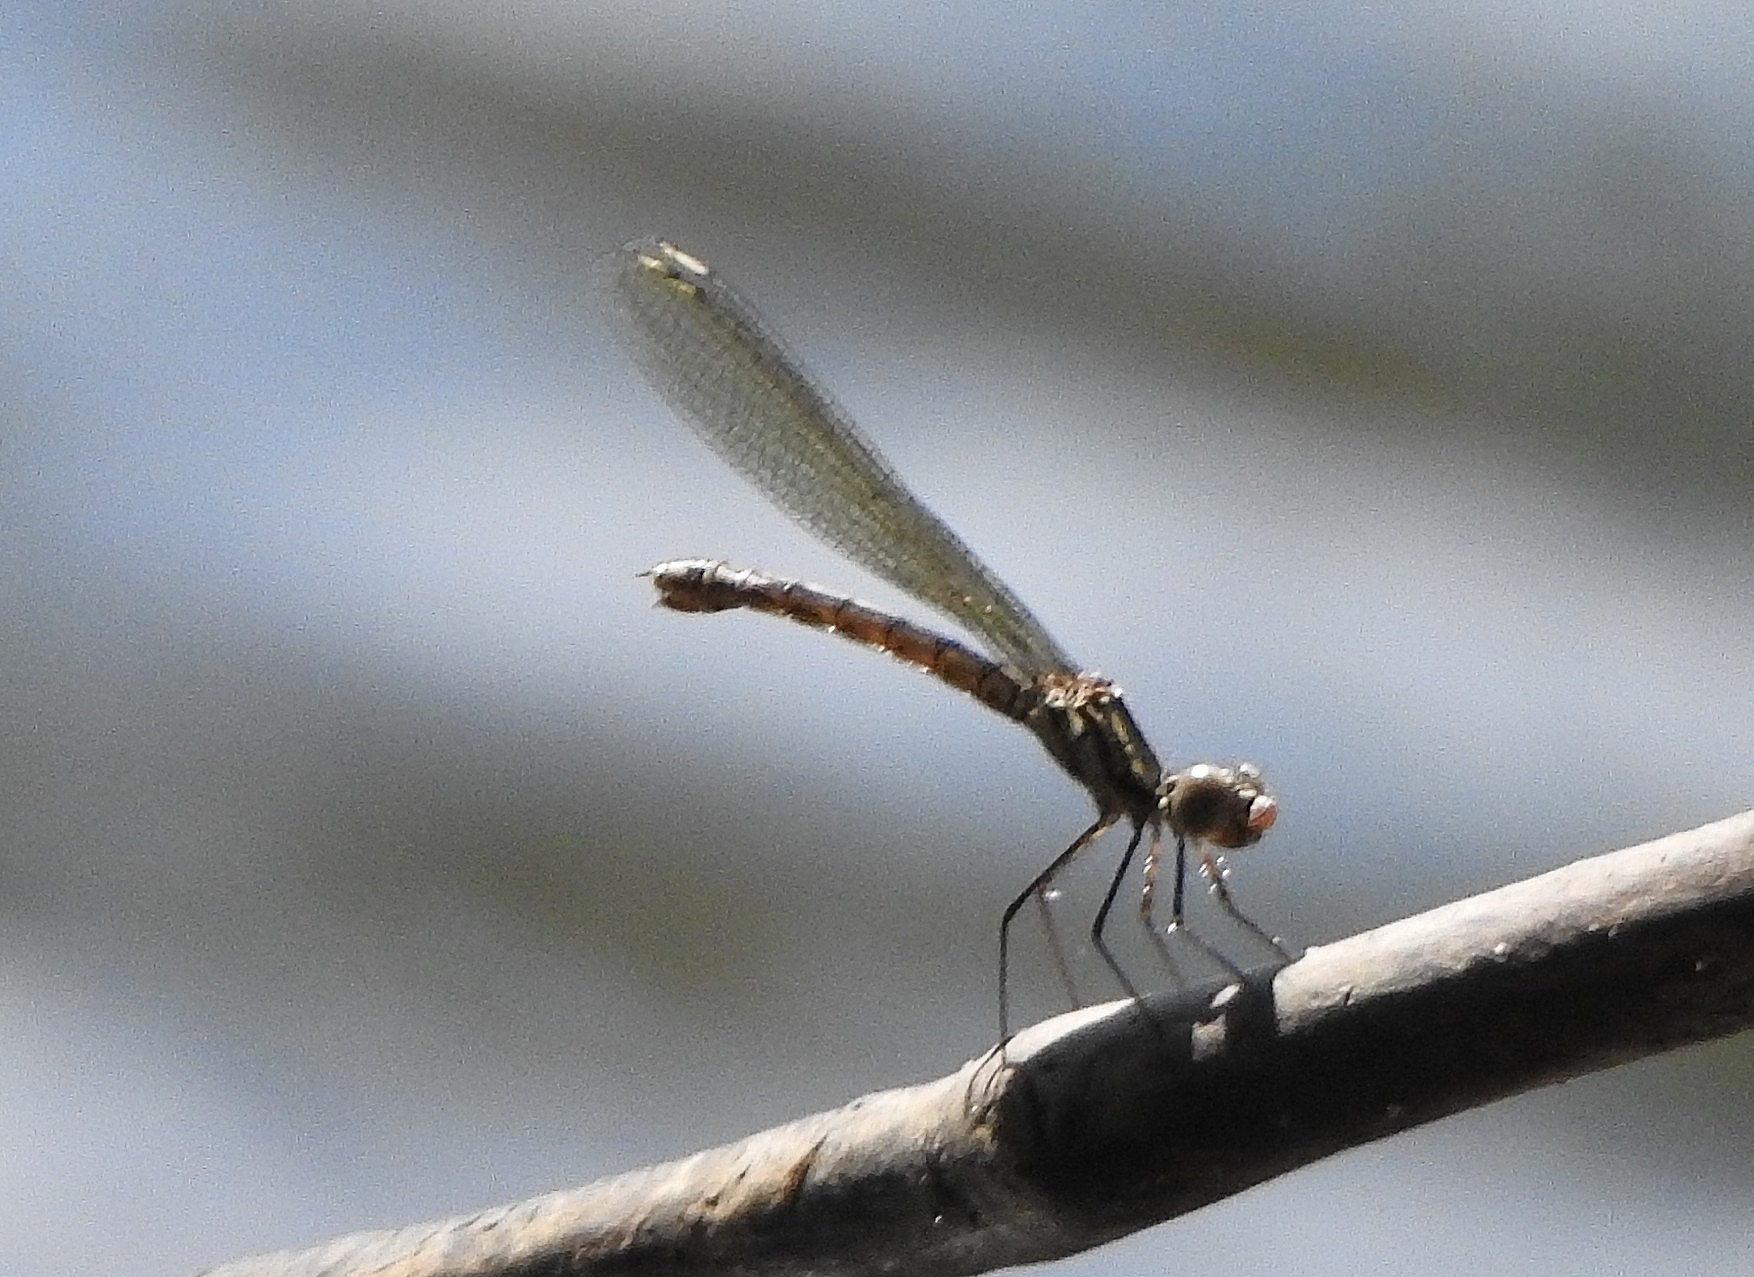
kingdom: Animalia
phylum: Arthropoda
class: Insecta
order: Odonata
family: Chlorocyphidae
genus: Libellago
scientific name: Libellago indica
